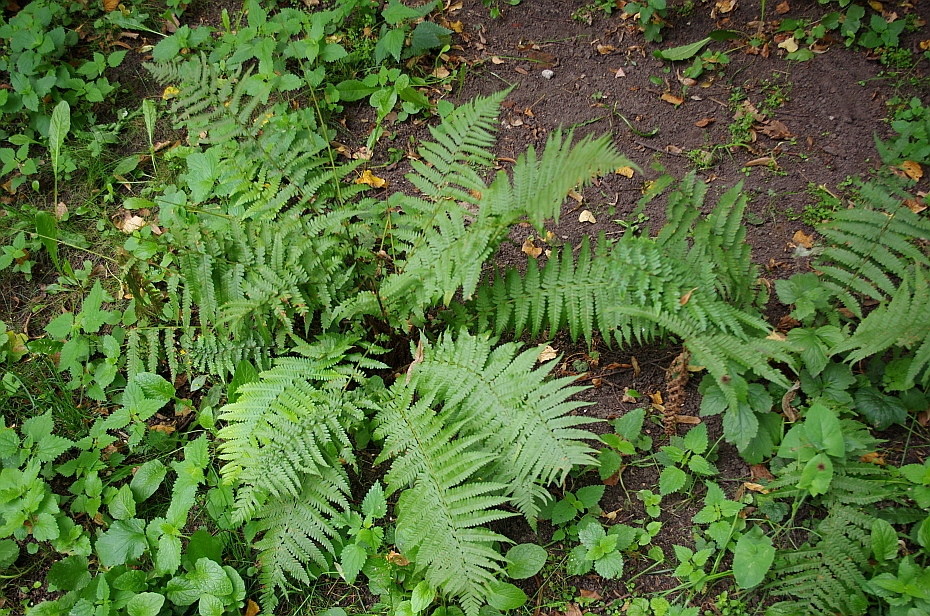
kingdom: Plantae
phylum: Tracheophyta
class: Polypodiopsida
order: Polypodiales
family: Dryopteridaceae
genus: Dryopteris
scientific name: Dryopteris filix-mas
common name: Male fern
